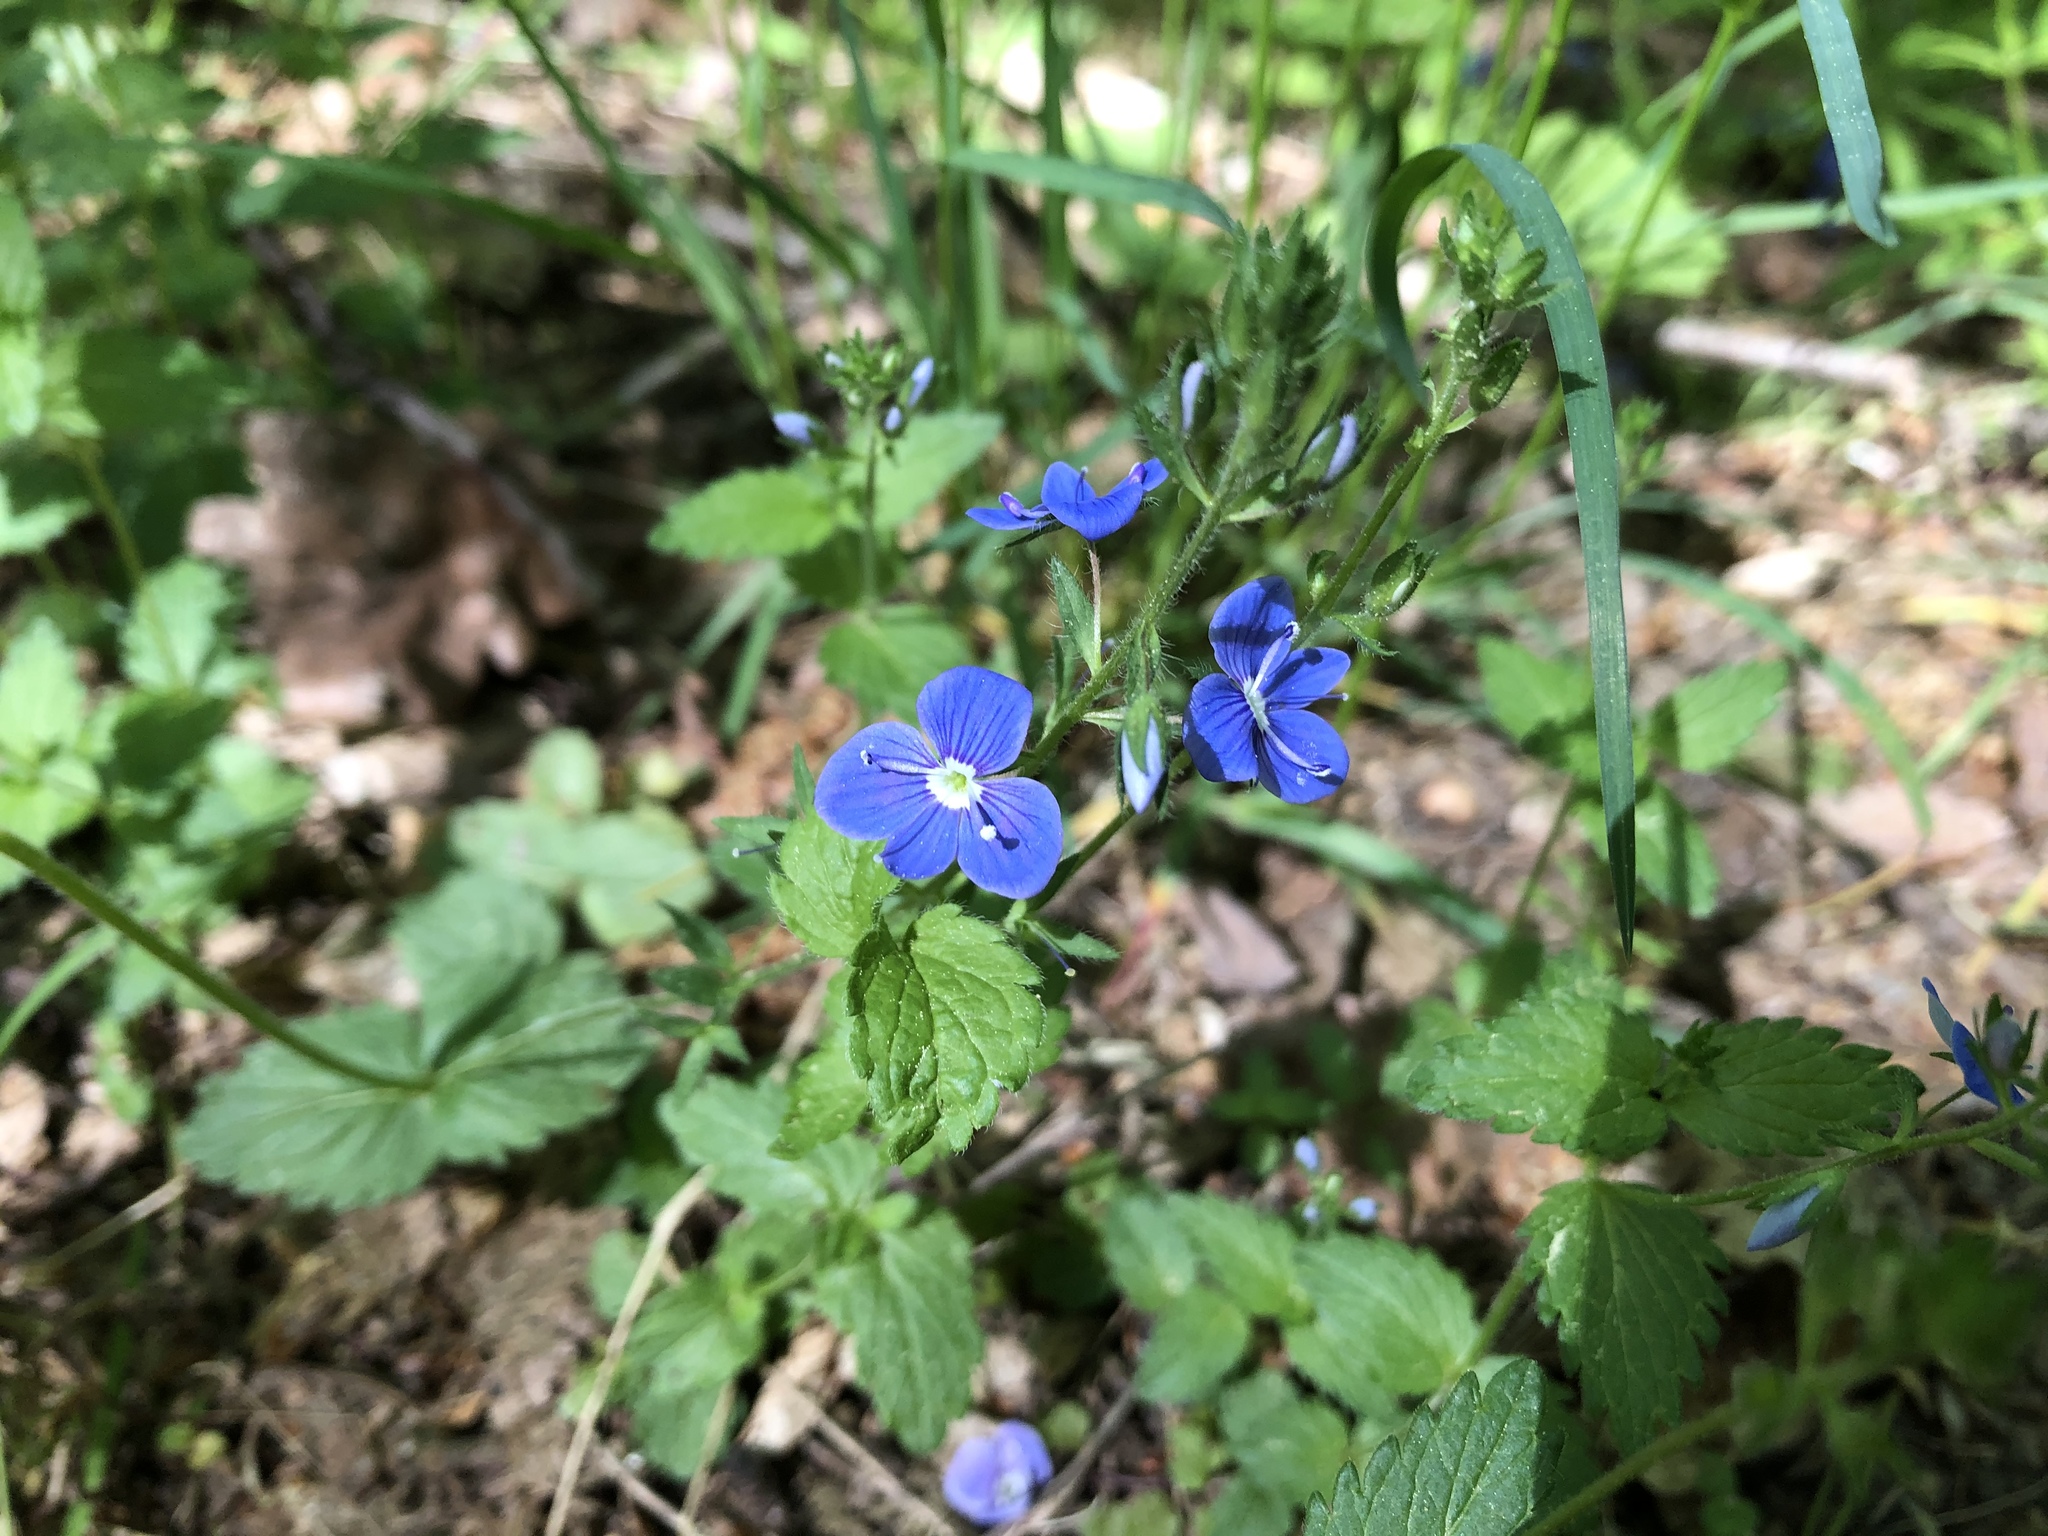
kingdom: Plantae
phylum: Tracheophyta
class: Magnoliopsida
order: Lamiales
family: Plantaginaceae
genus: Veronica
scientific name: Veronica chamaedrys
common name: Germander speedwell
